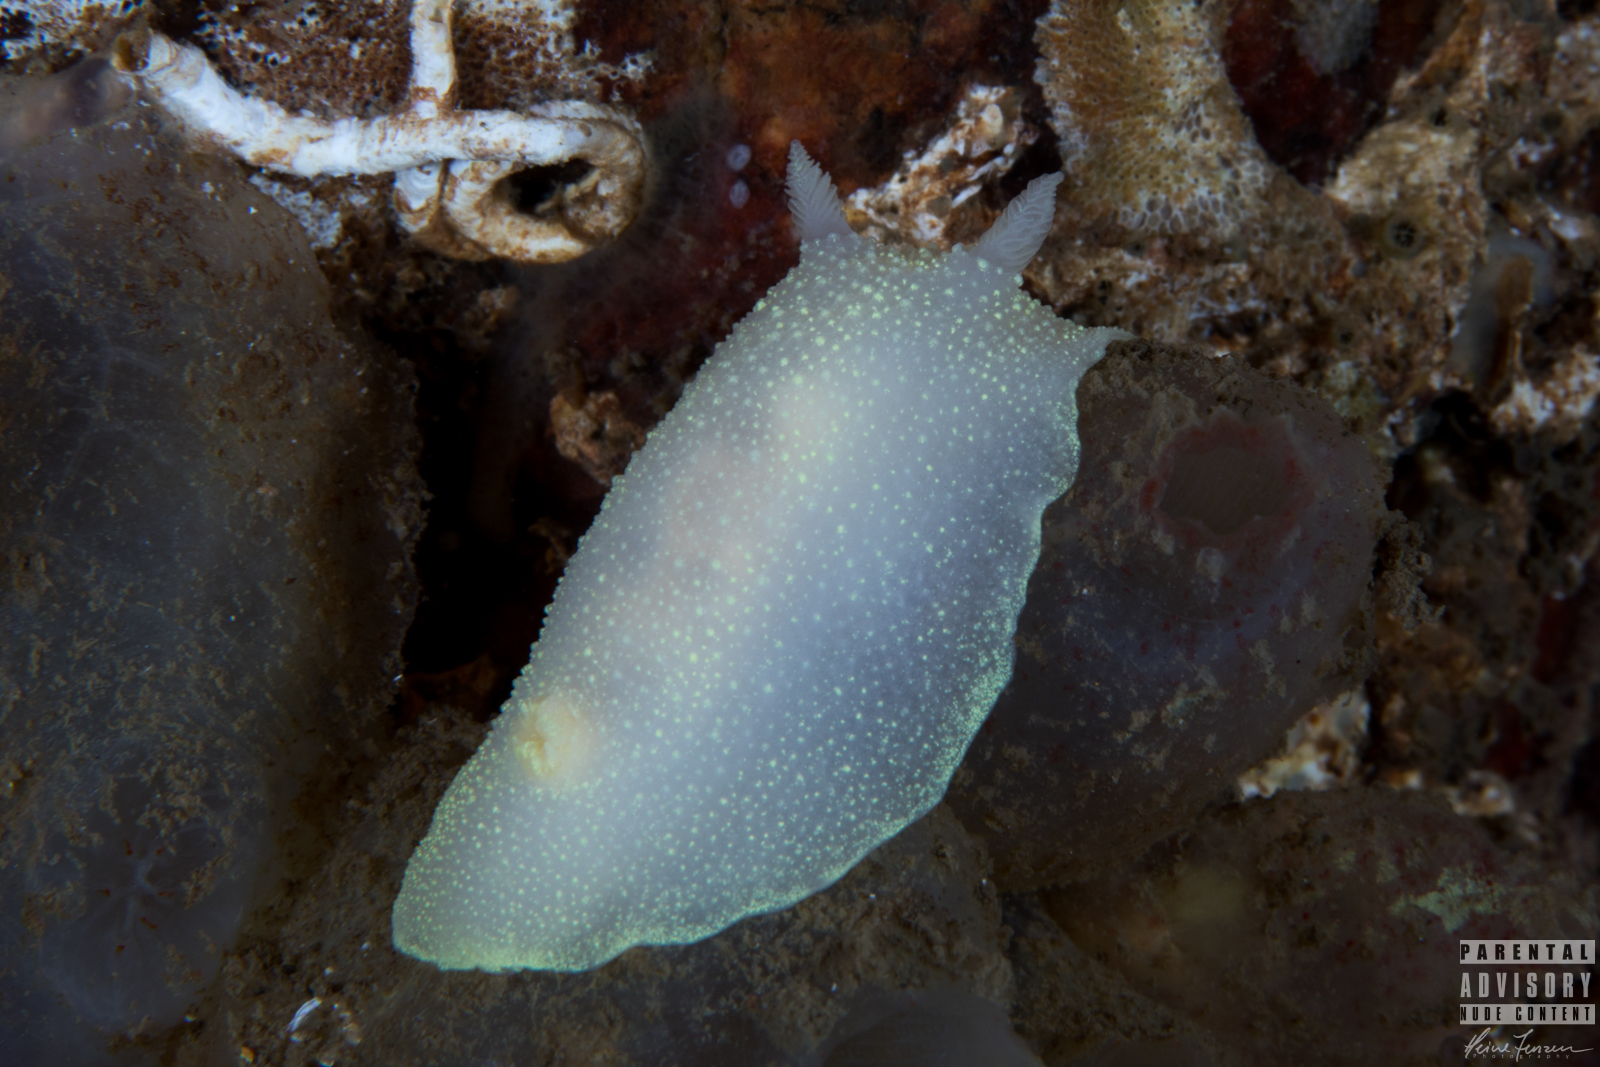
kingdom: Animalia
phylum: Mollusca
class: Gastropoda
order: Nudibranchia
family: Cadlinidae
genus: Cadlina
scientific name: Cadlina laevis
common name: White atlantic cadlina
